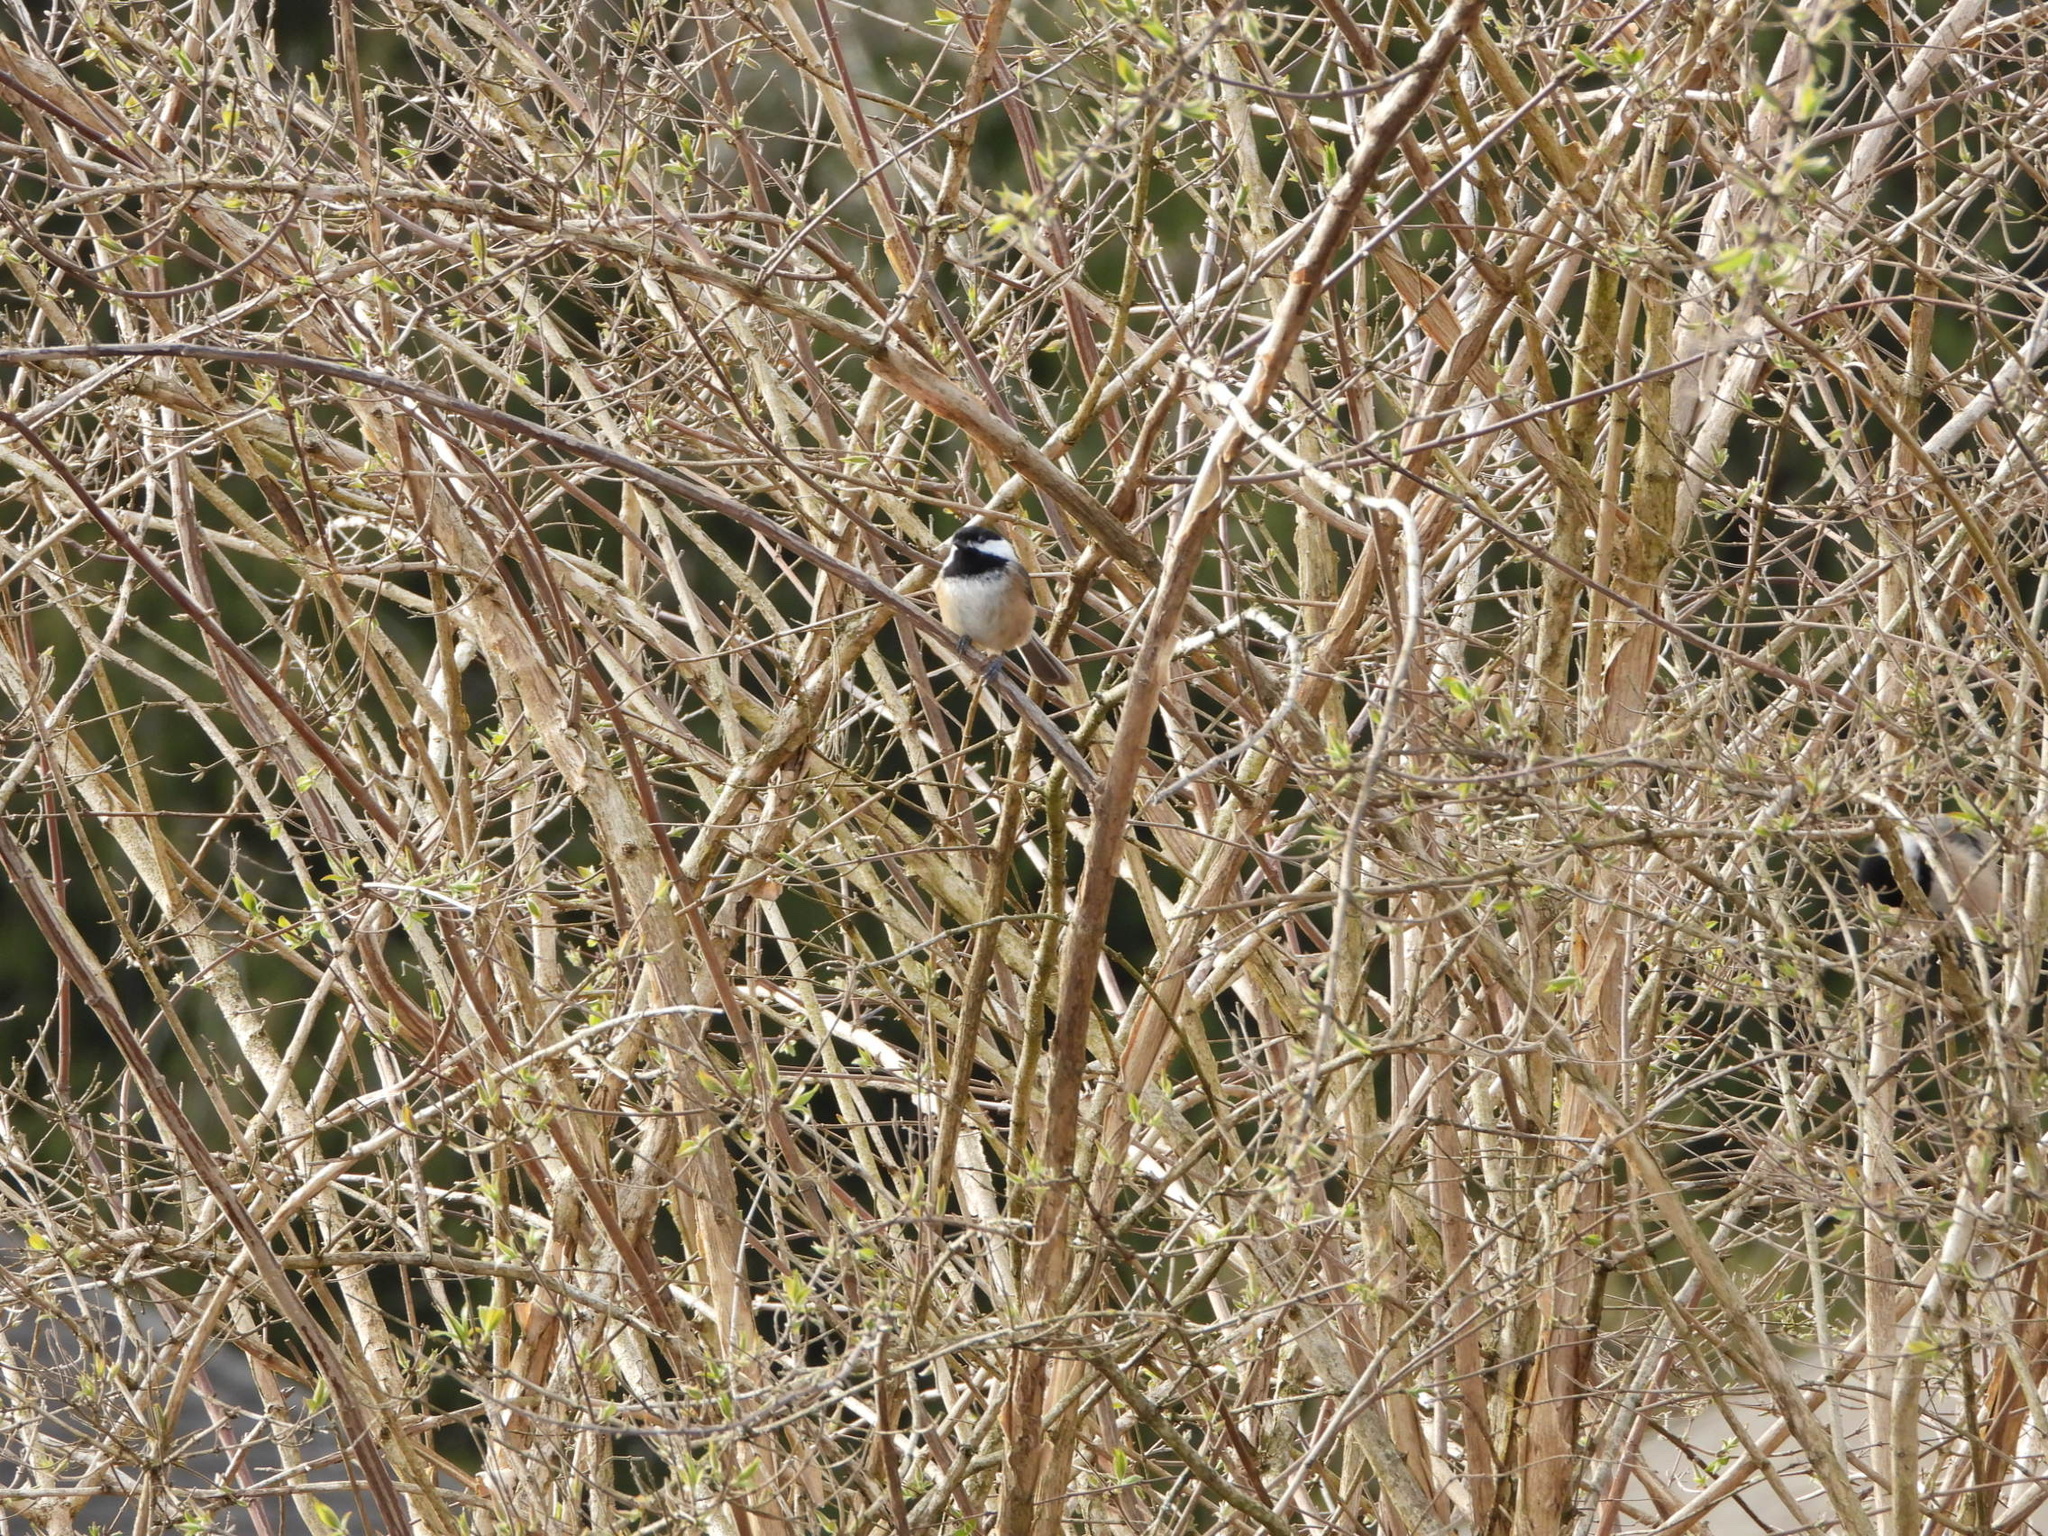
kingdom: Animalia
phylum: Chordata
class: Aves
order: Passeriformes
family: Paridae
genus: Poecile
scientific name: Poecile atricapillus
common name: Black-capped chickadee
